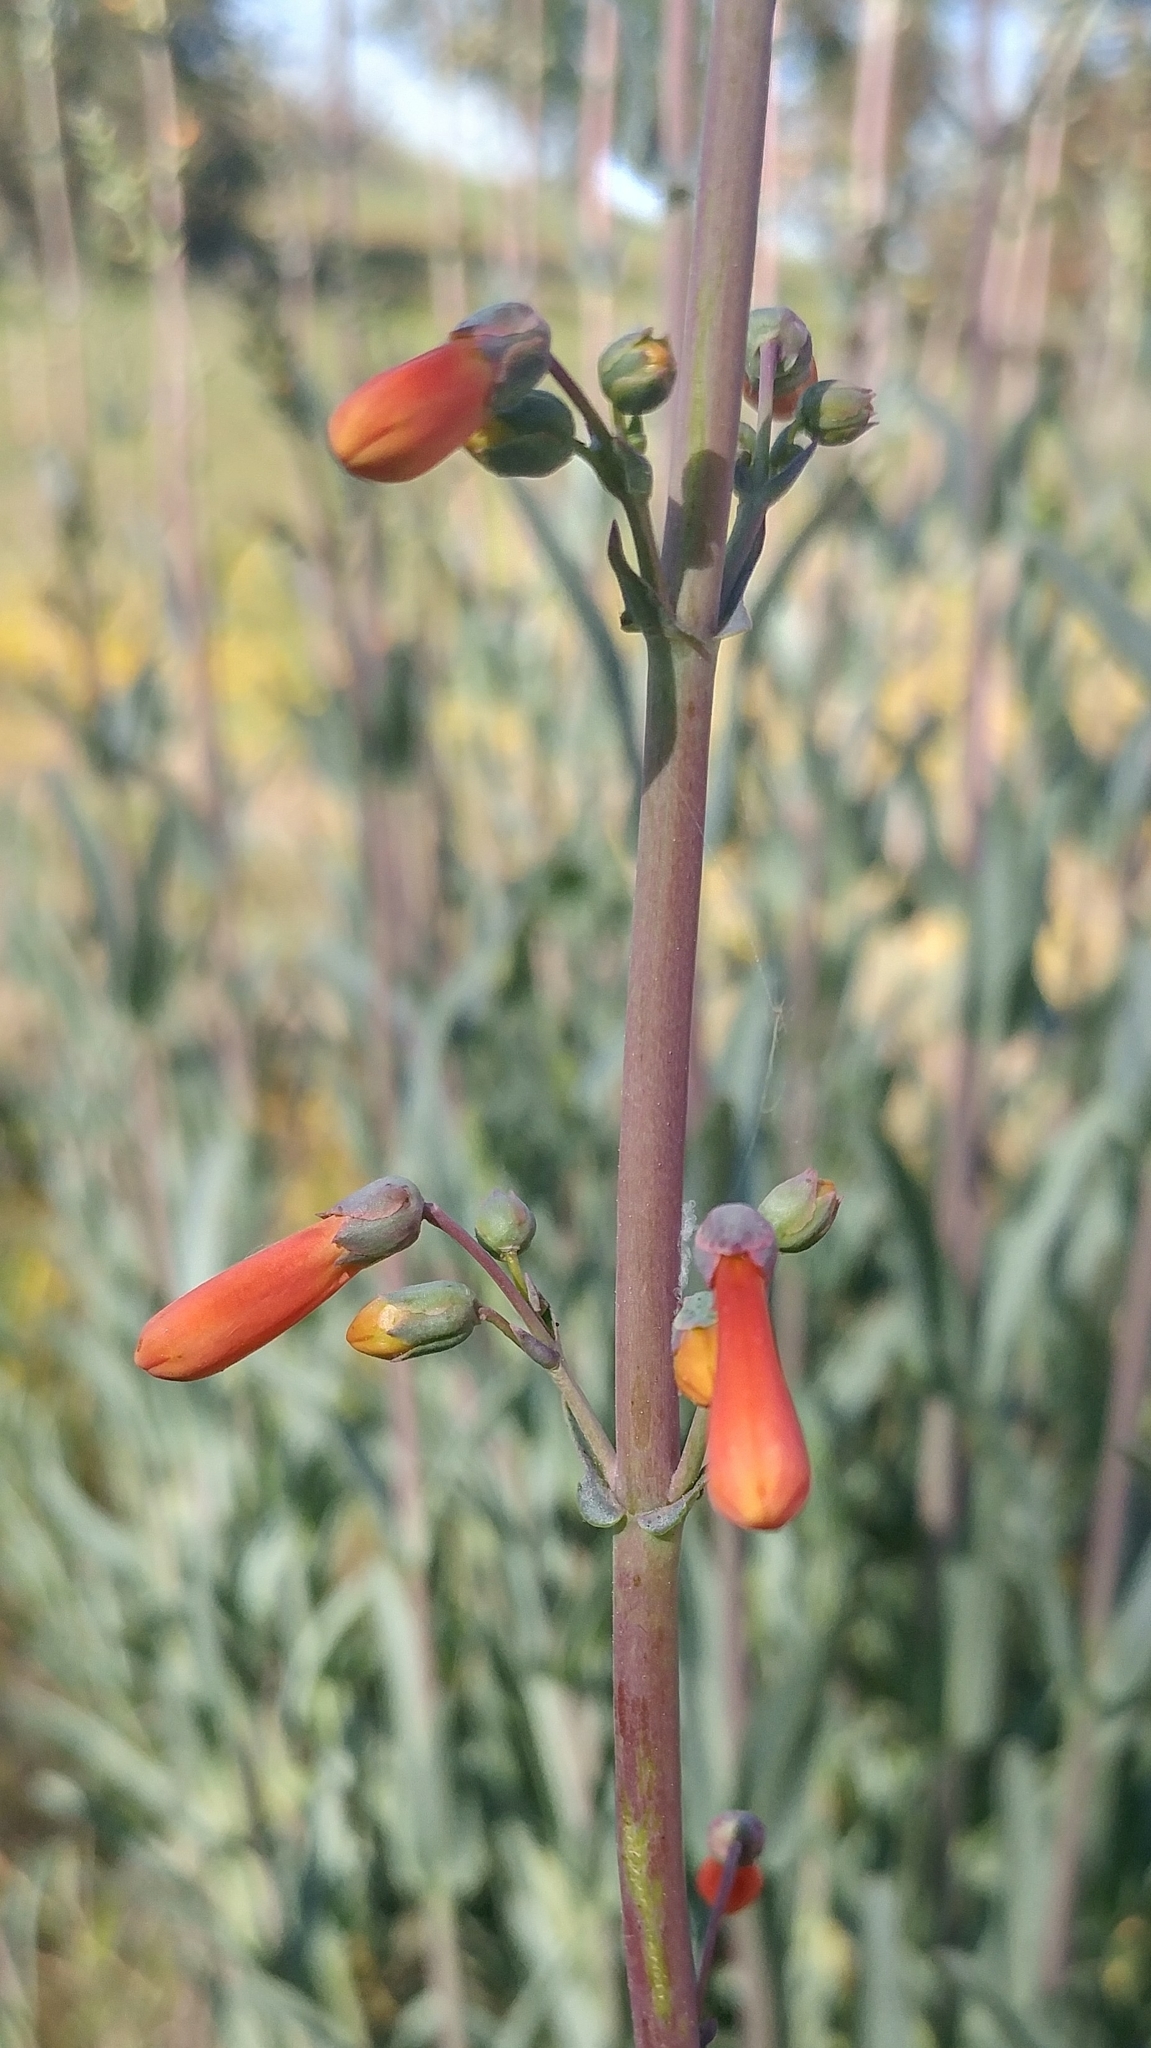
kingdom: Plantae
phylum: Tracheophyta
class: Magnoliopsida
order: Lamiales
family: Plantaginaceae
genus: Penstemon
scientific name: Penstemon centranthifolius
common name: Scarlet bugler
